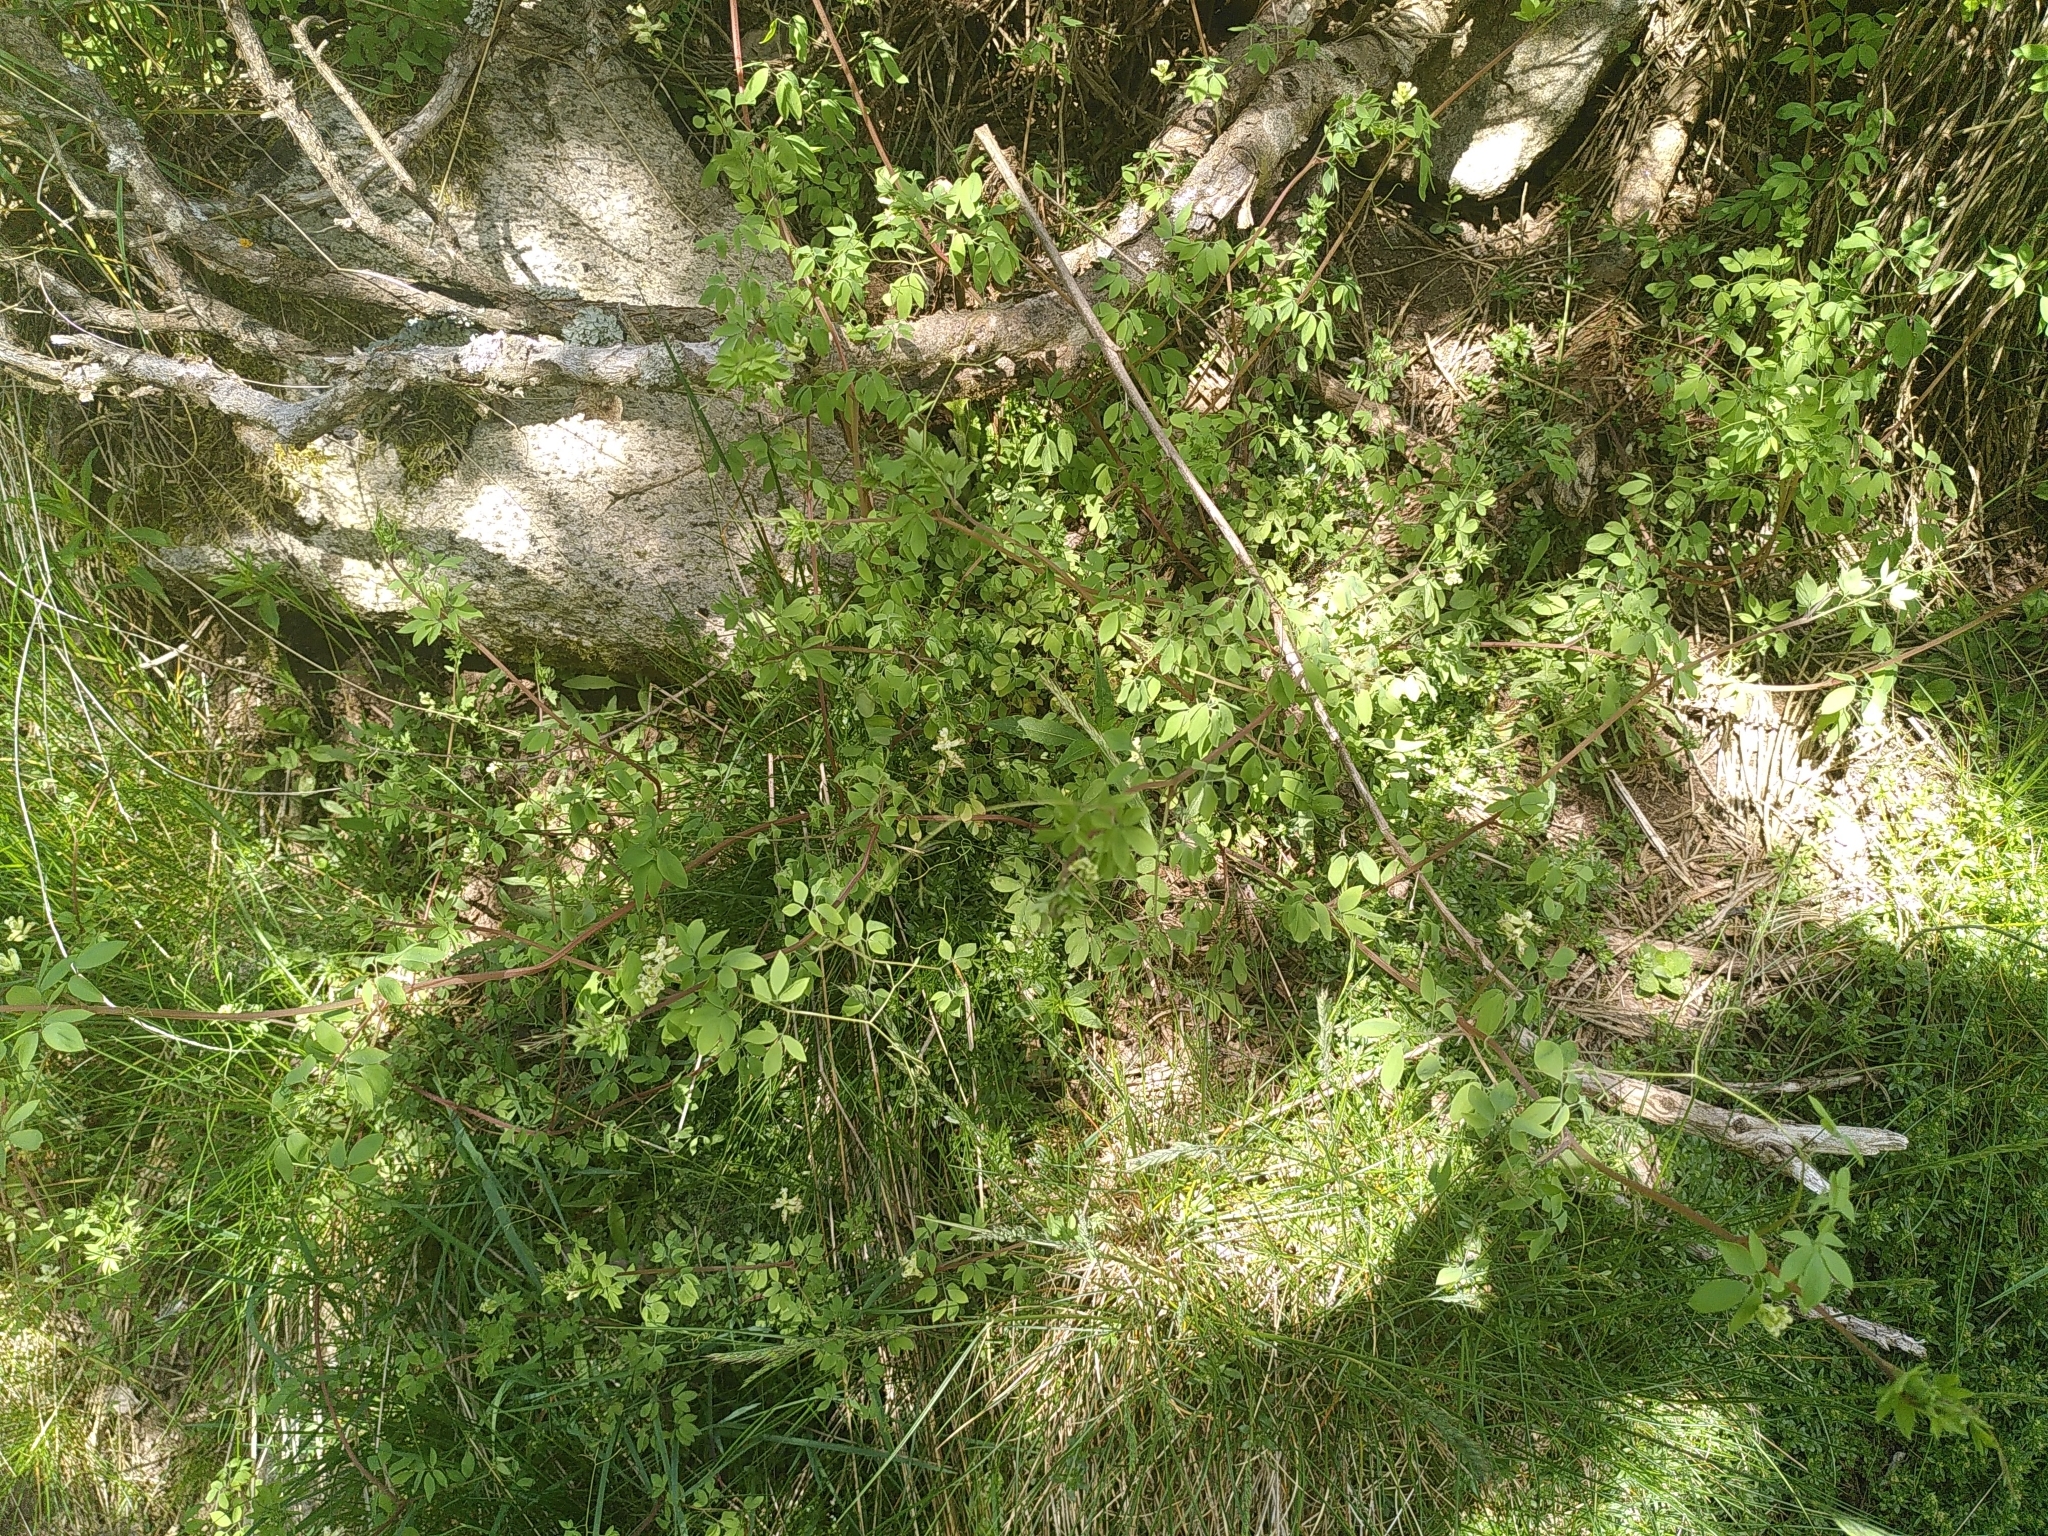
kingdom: Plantae
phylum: Tracheophyta
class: Magnoliopsida
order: Ranunculales
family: Papaveraceae
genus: Ceratocapnos
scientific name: Ceratocapnos claviculata
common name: Climbing corydalis
